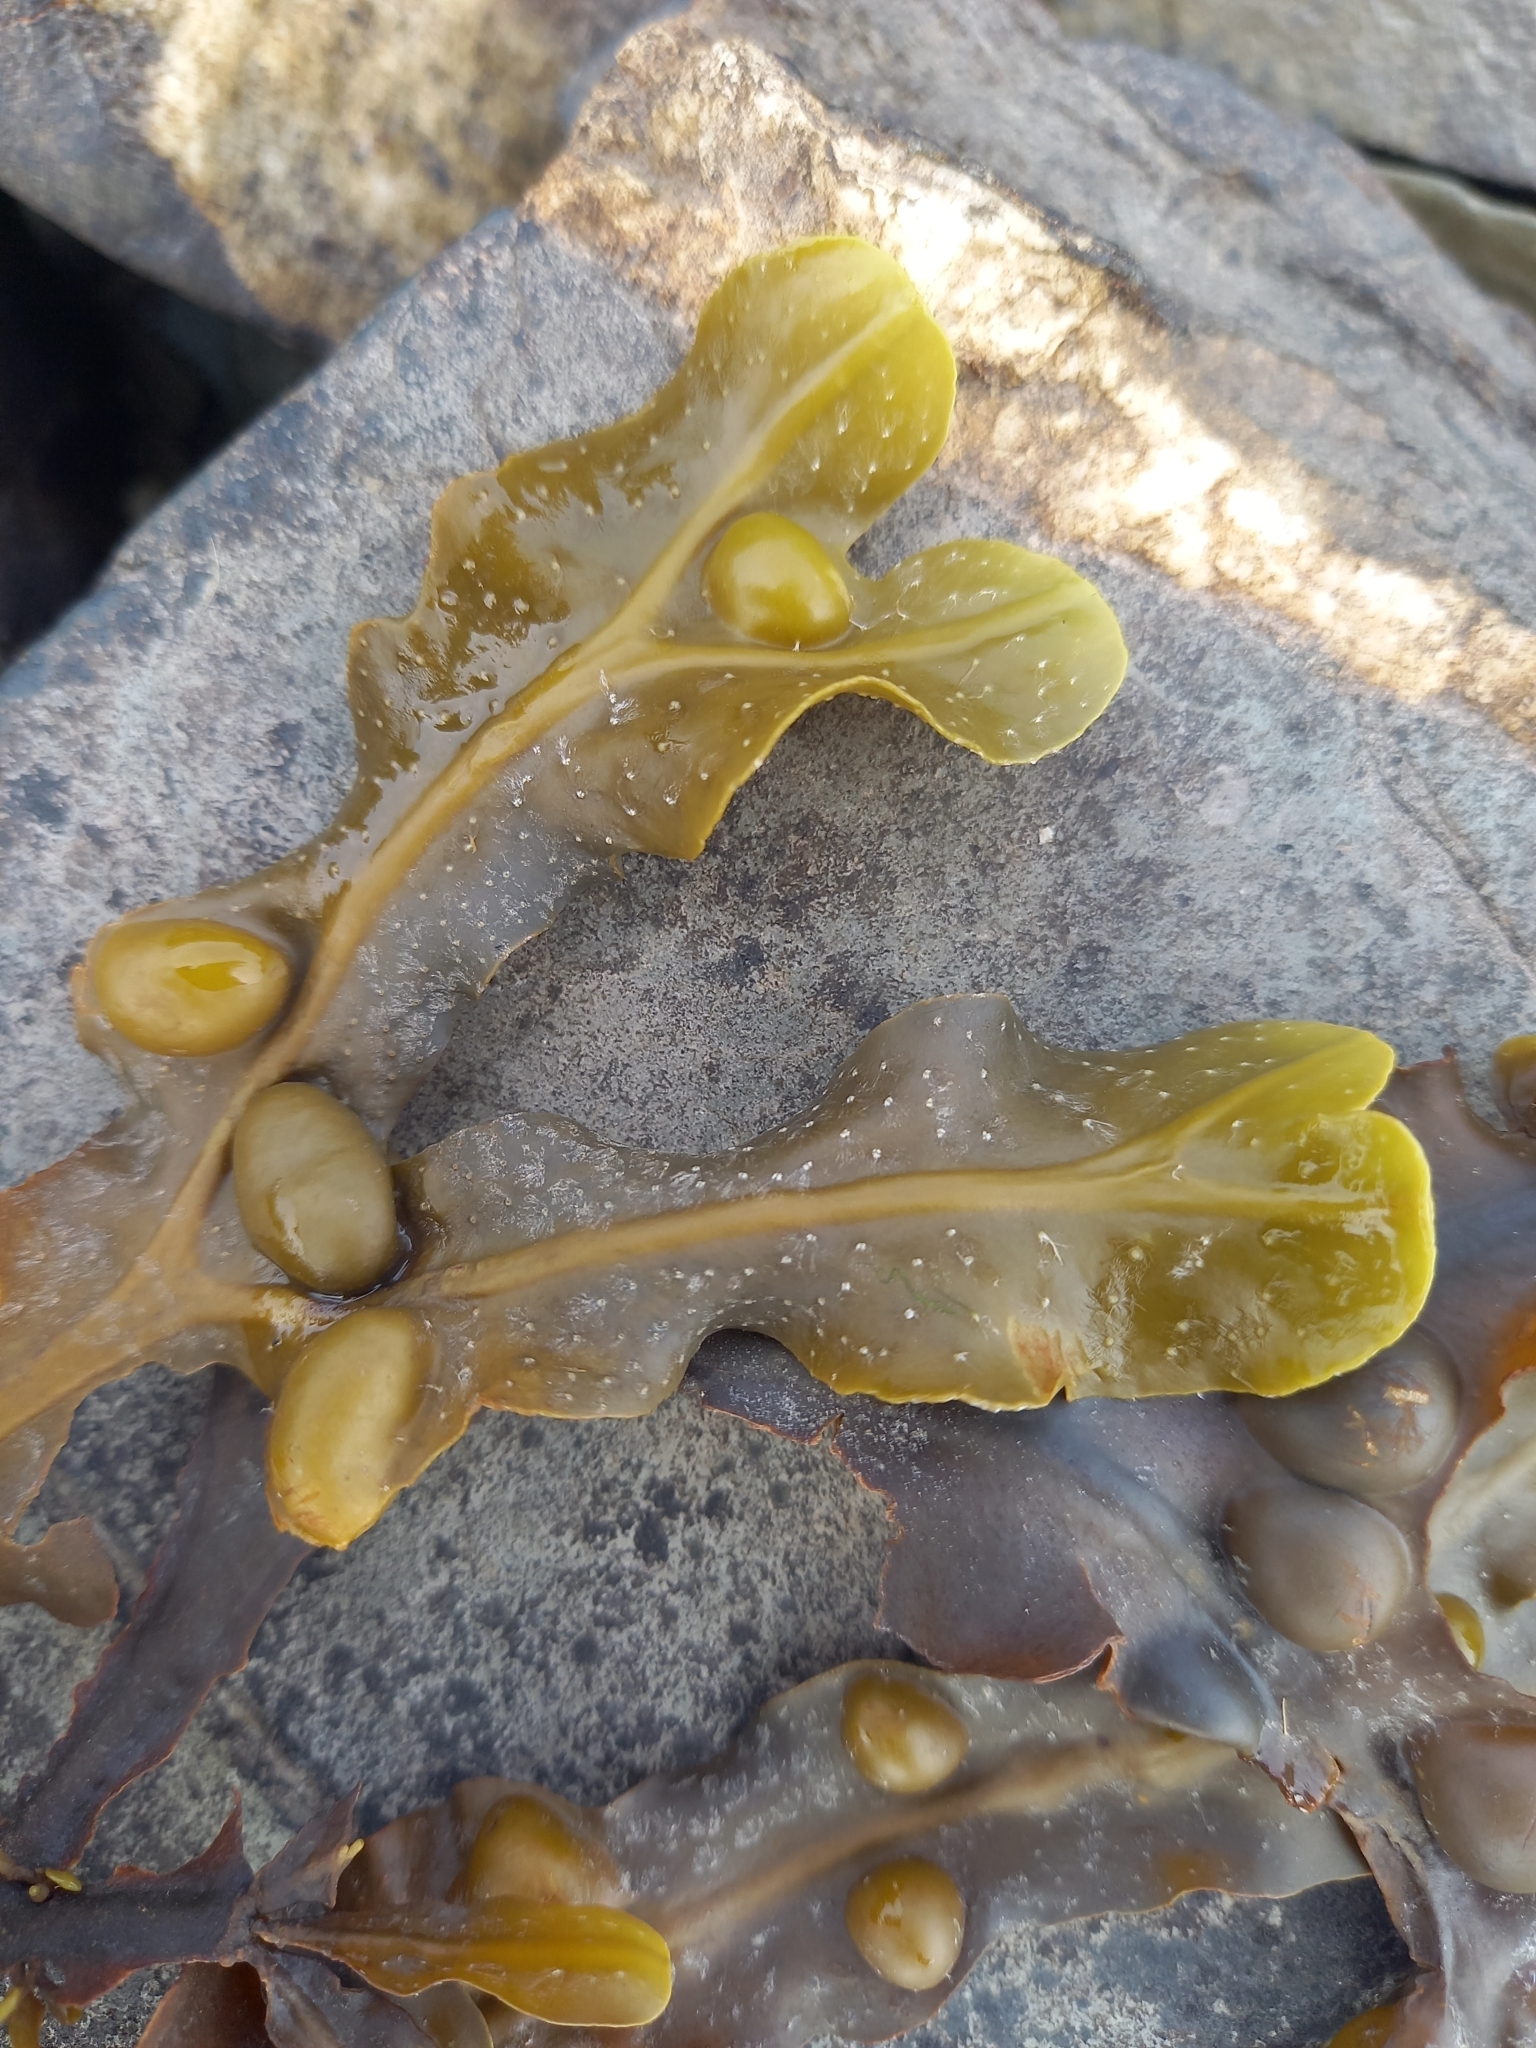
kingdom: Chromista
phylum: Ochrophyta
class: Phaeophyceae
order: Fucales
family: Fucaceae
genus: Fucus
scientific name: Fucus vesiculosus
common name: Bladder wrack
